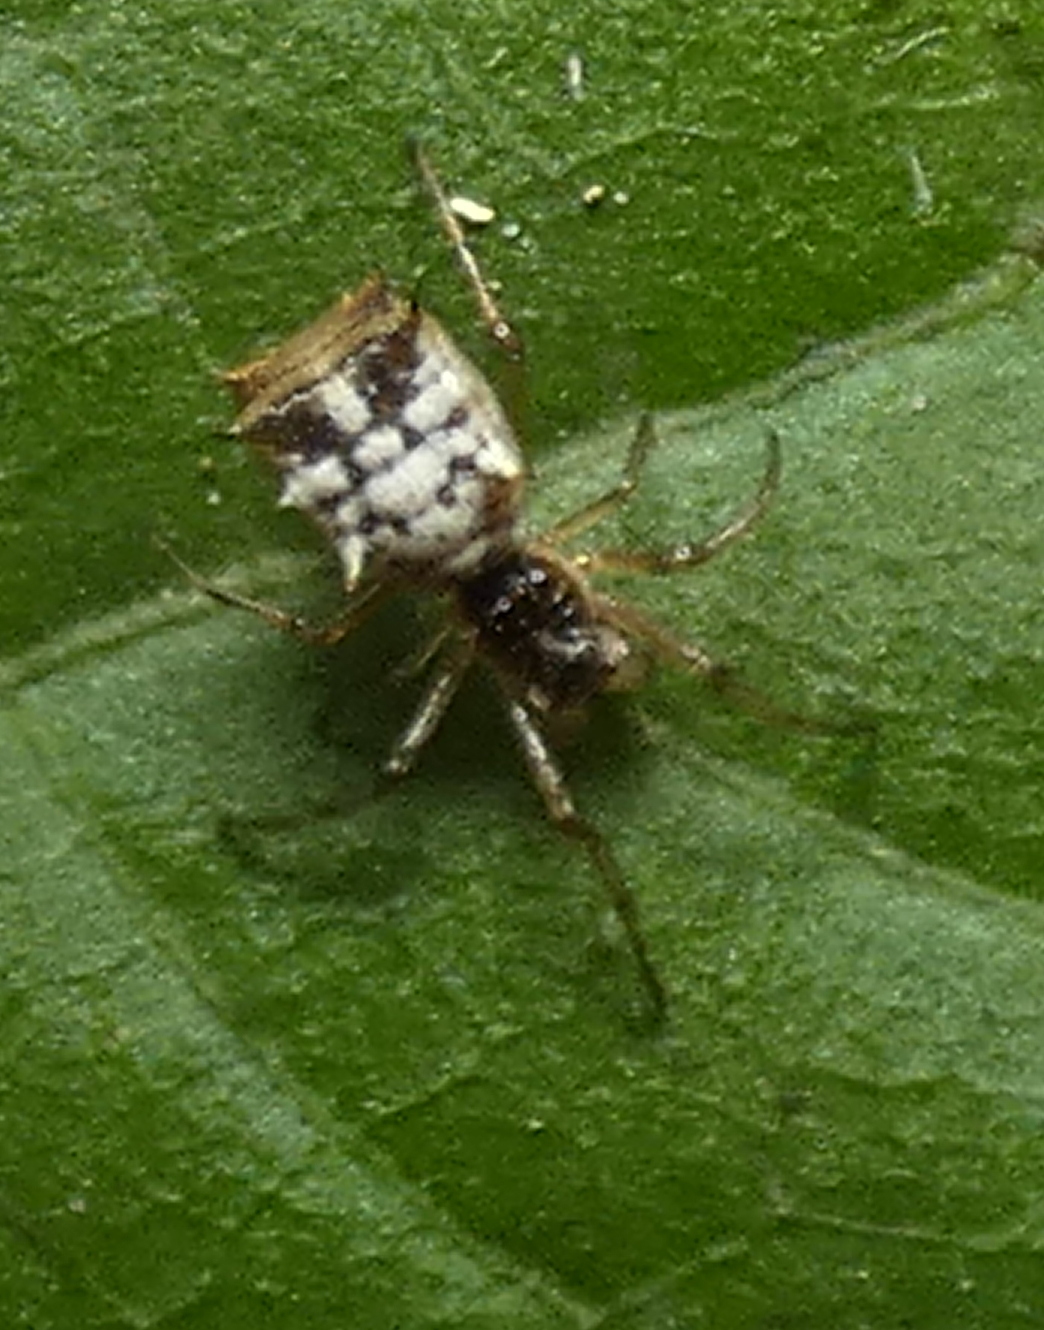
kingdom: Animalia
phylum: Arthropoda
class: Arachnida
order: Araneae
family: Araneidae
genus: Micrathena
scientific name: Micrathena picta
